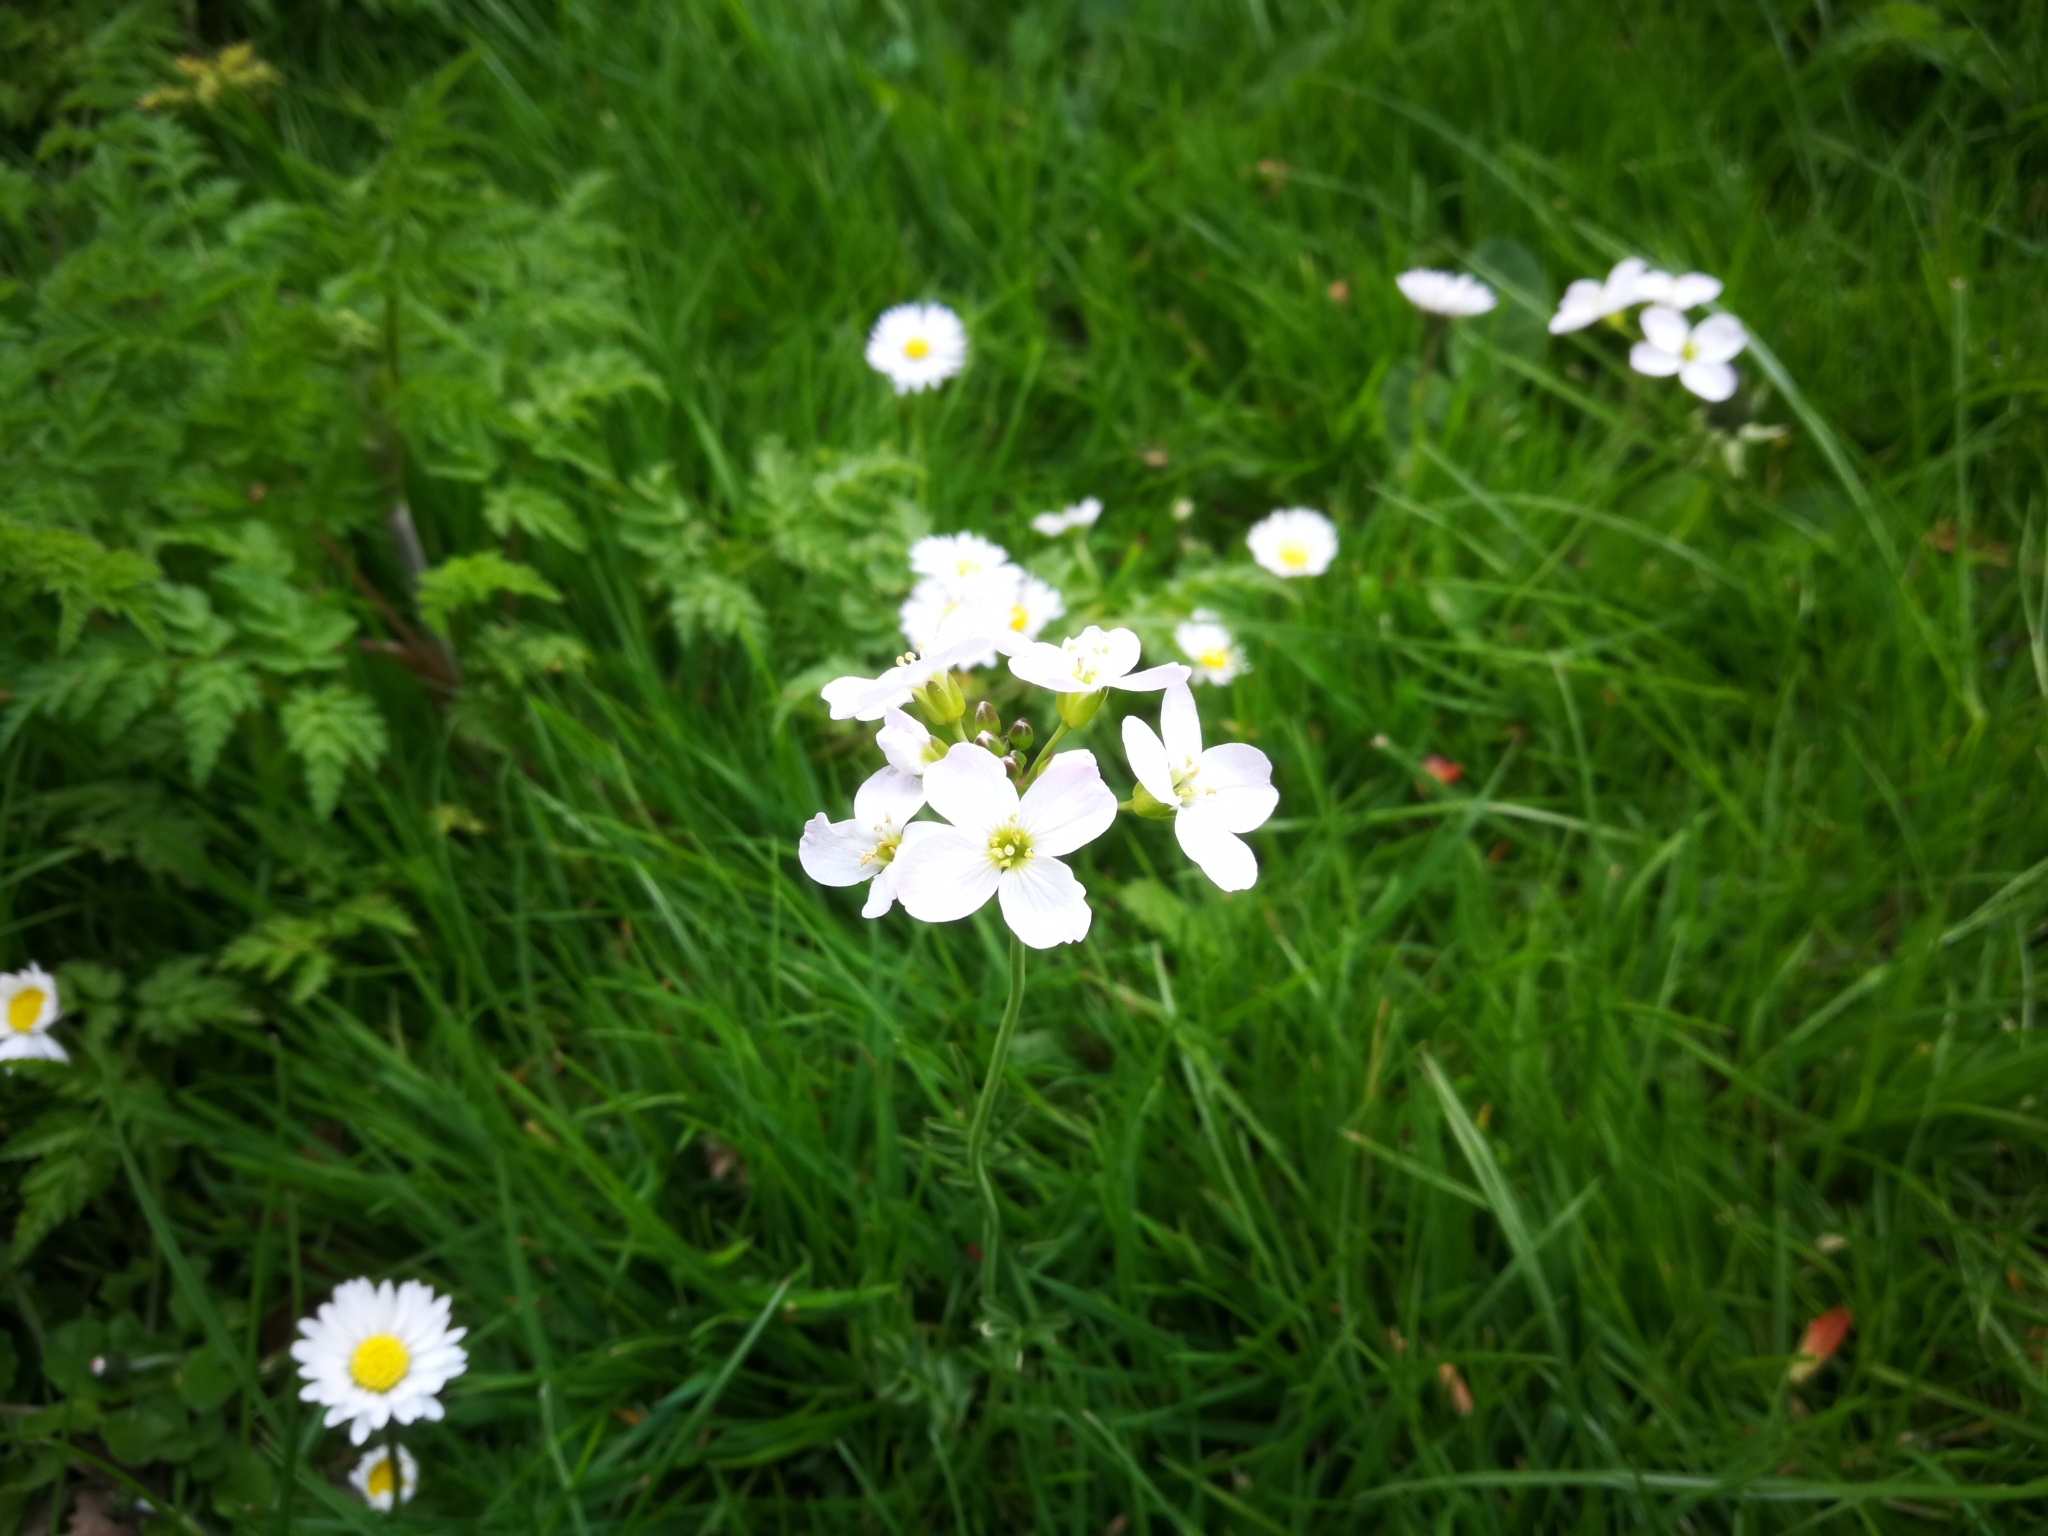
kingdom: Plantae
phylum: Tracheophyta
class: Magnoliopsida
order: Brassicales
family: Brassicaceae
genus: Cardamine
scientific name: Cardamine pratensis
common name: Cuckoo flower
